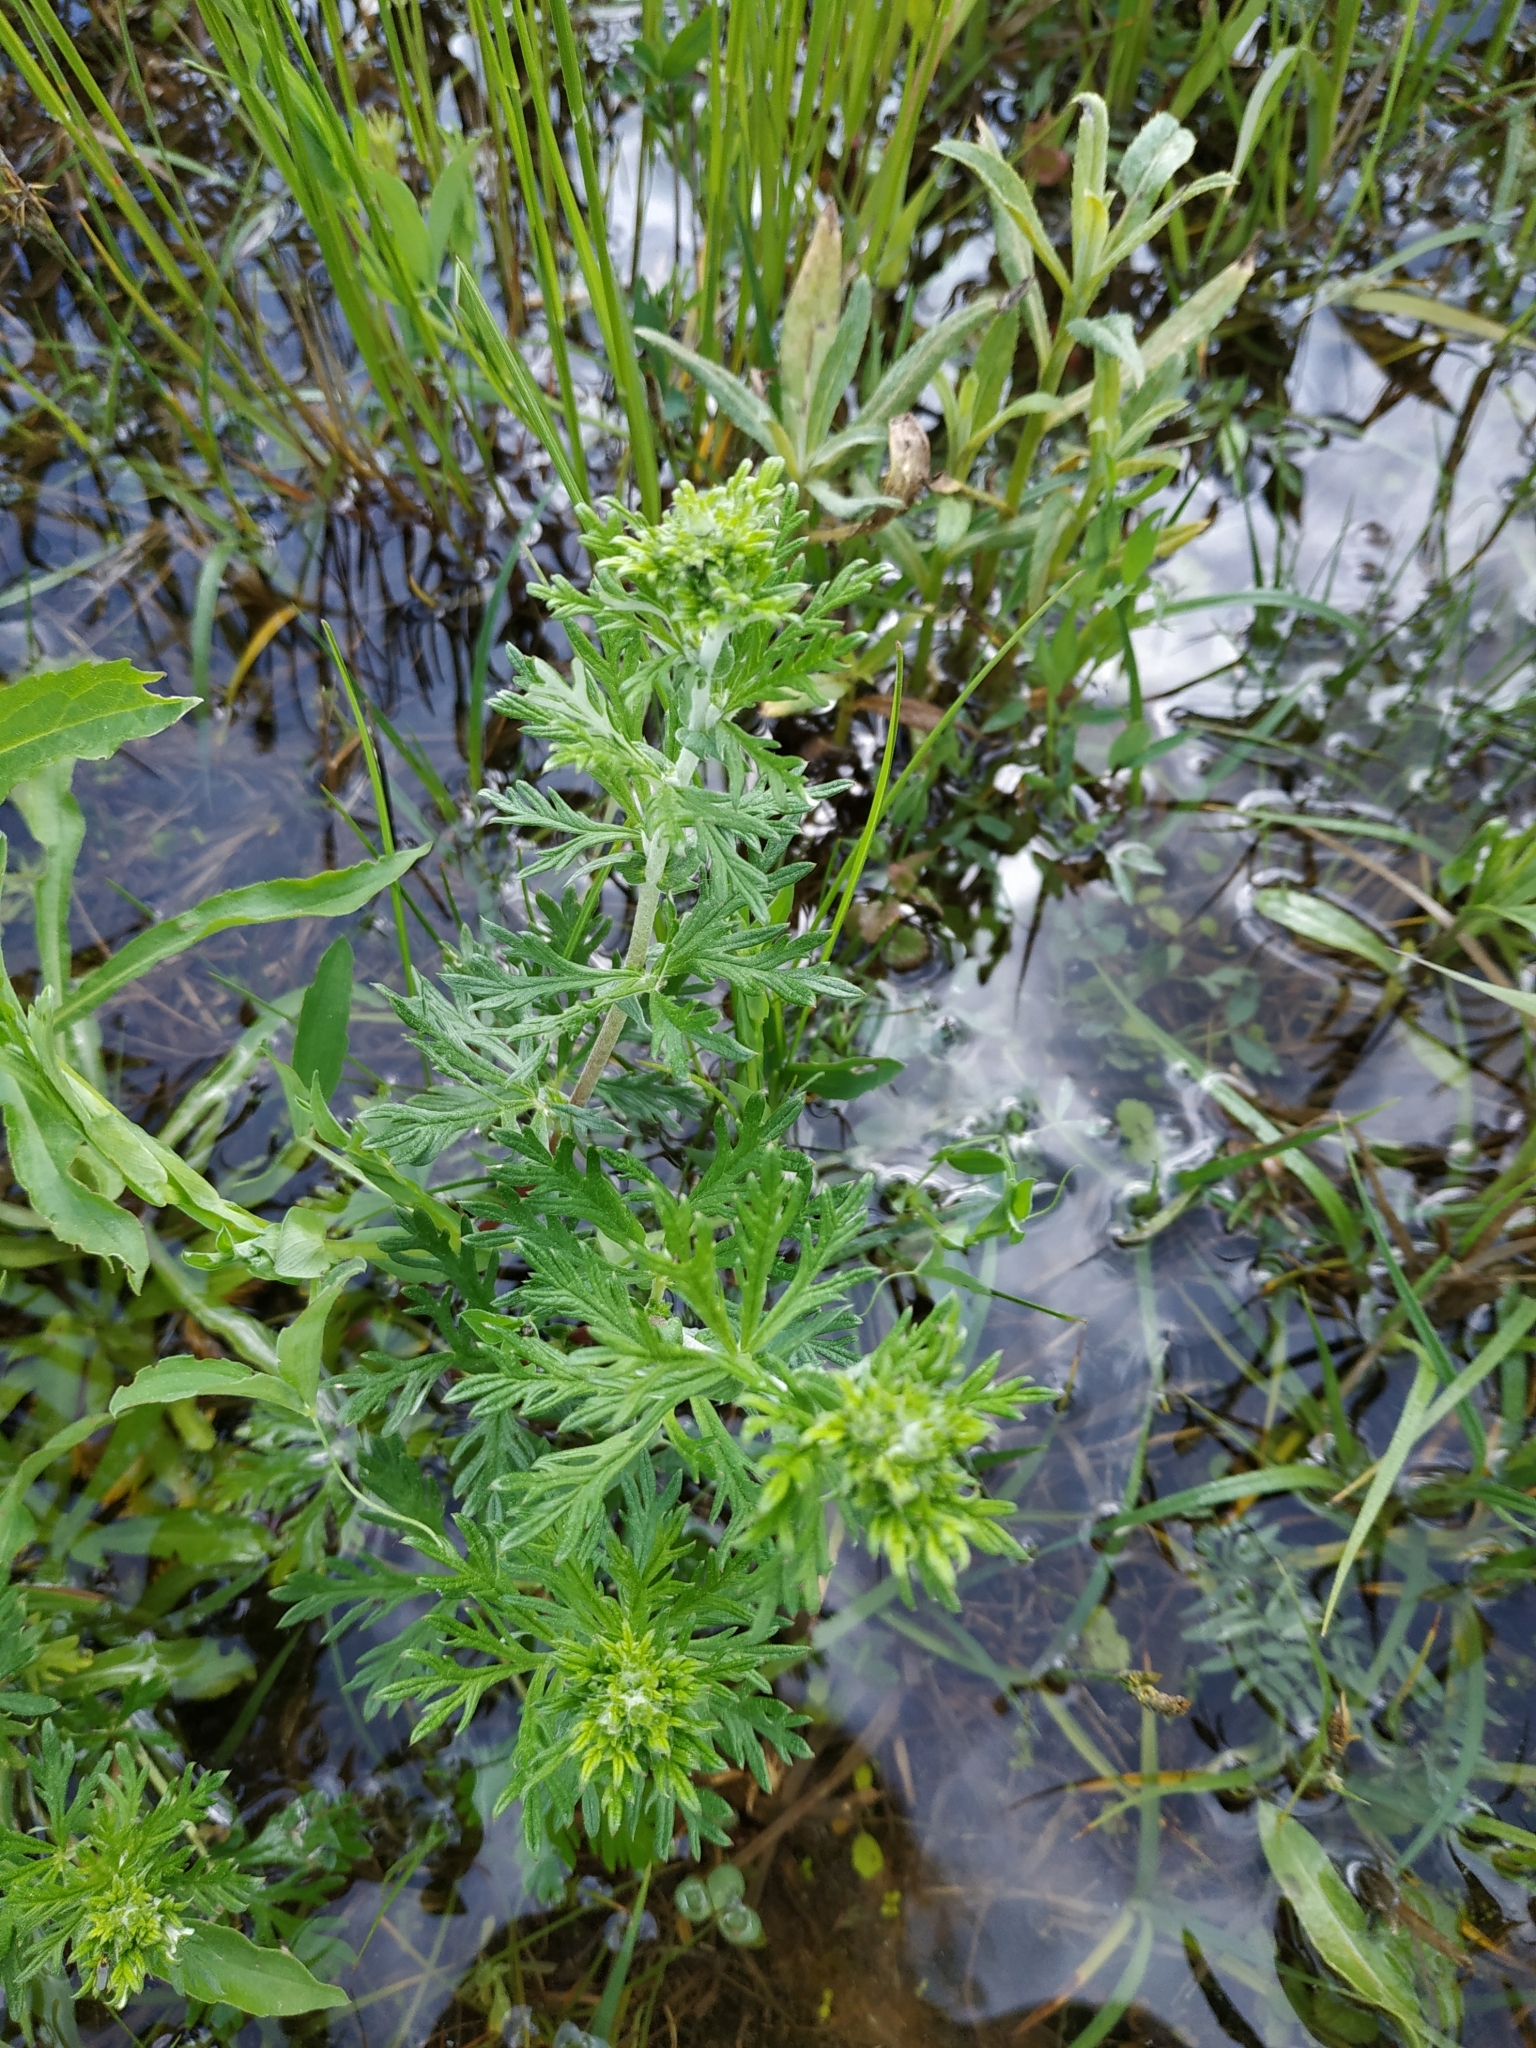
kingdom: Plantae
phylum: Tracheophyta
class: Magnoliopsida
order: Rosales
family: Rosaceae
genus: Potentilla
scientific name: Potentilla argentea
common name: Hoary cinquefoil
